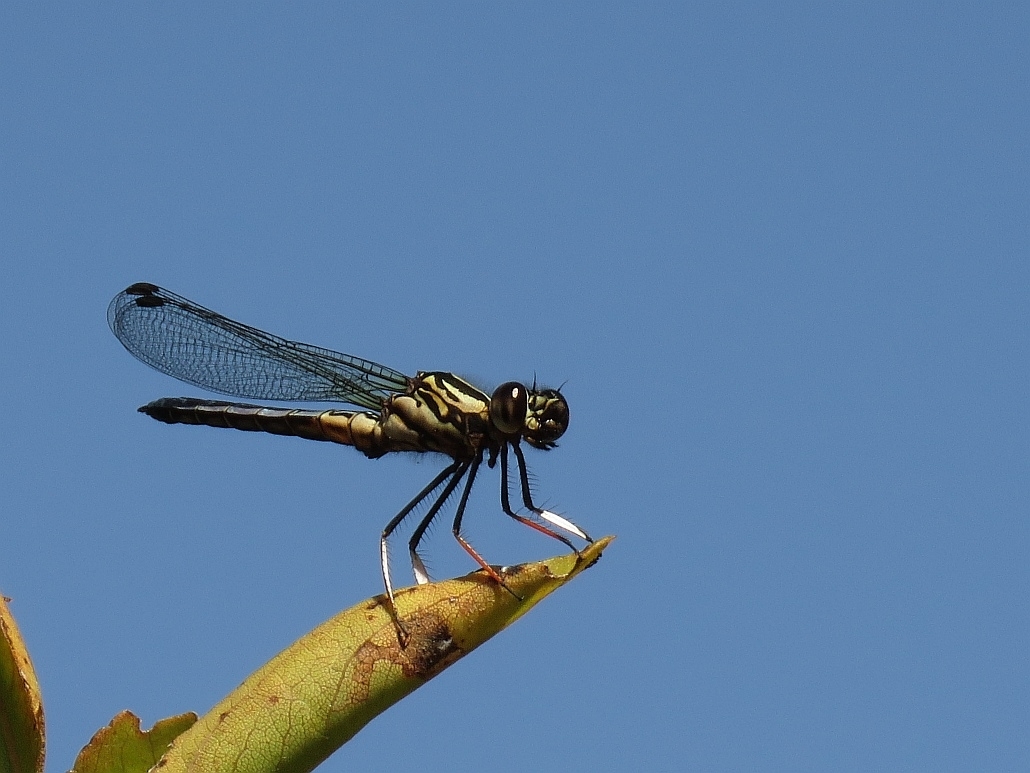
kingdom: Animalia
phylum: Arthropoda
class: Insecta
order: Odonata
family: Chlorocyphidae
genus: Platycypha
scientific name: Platycypha caligata
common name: Dancing jewel
